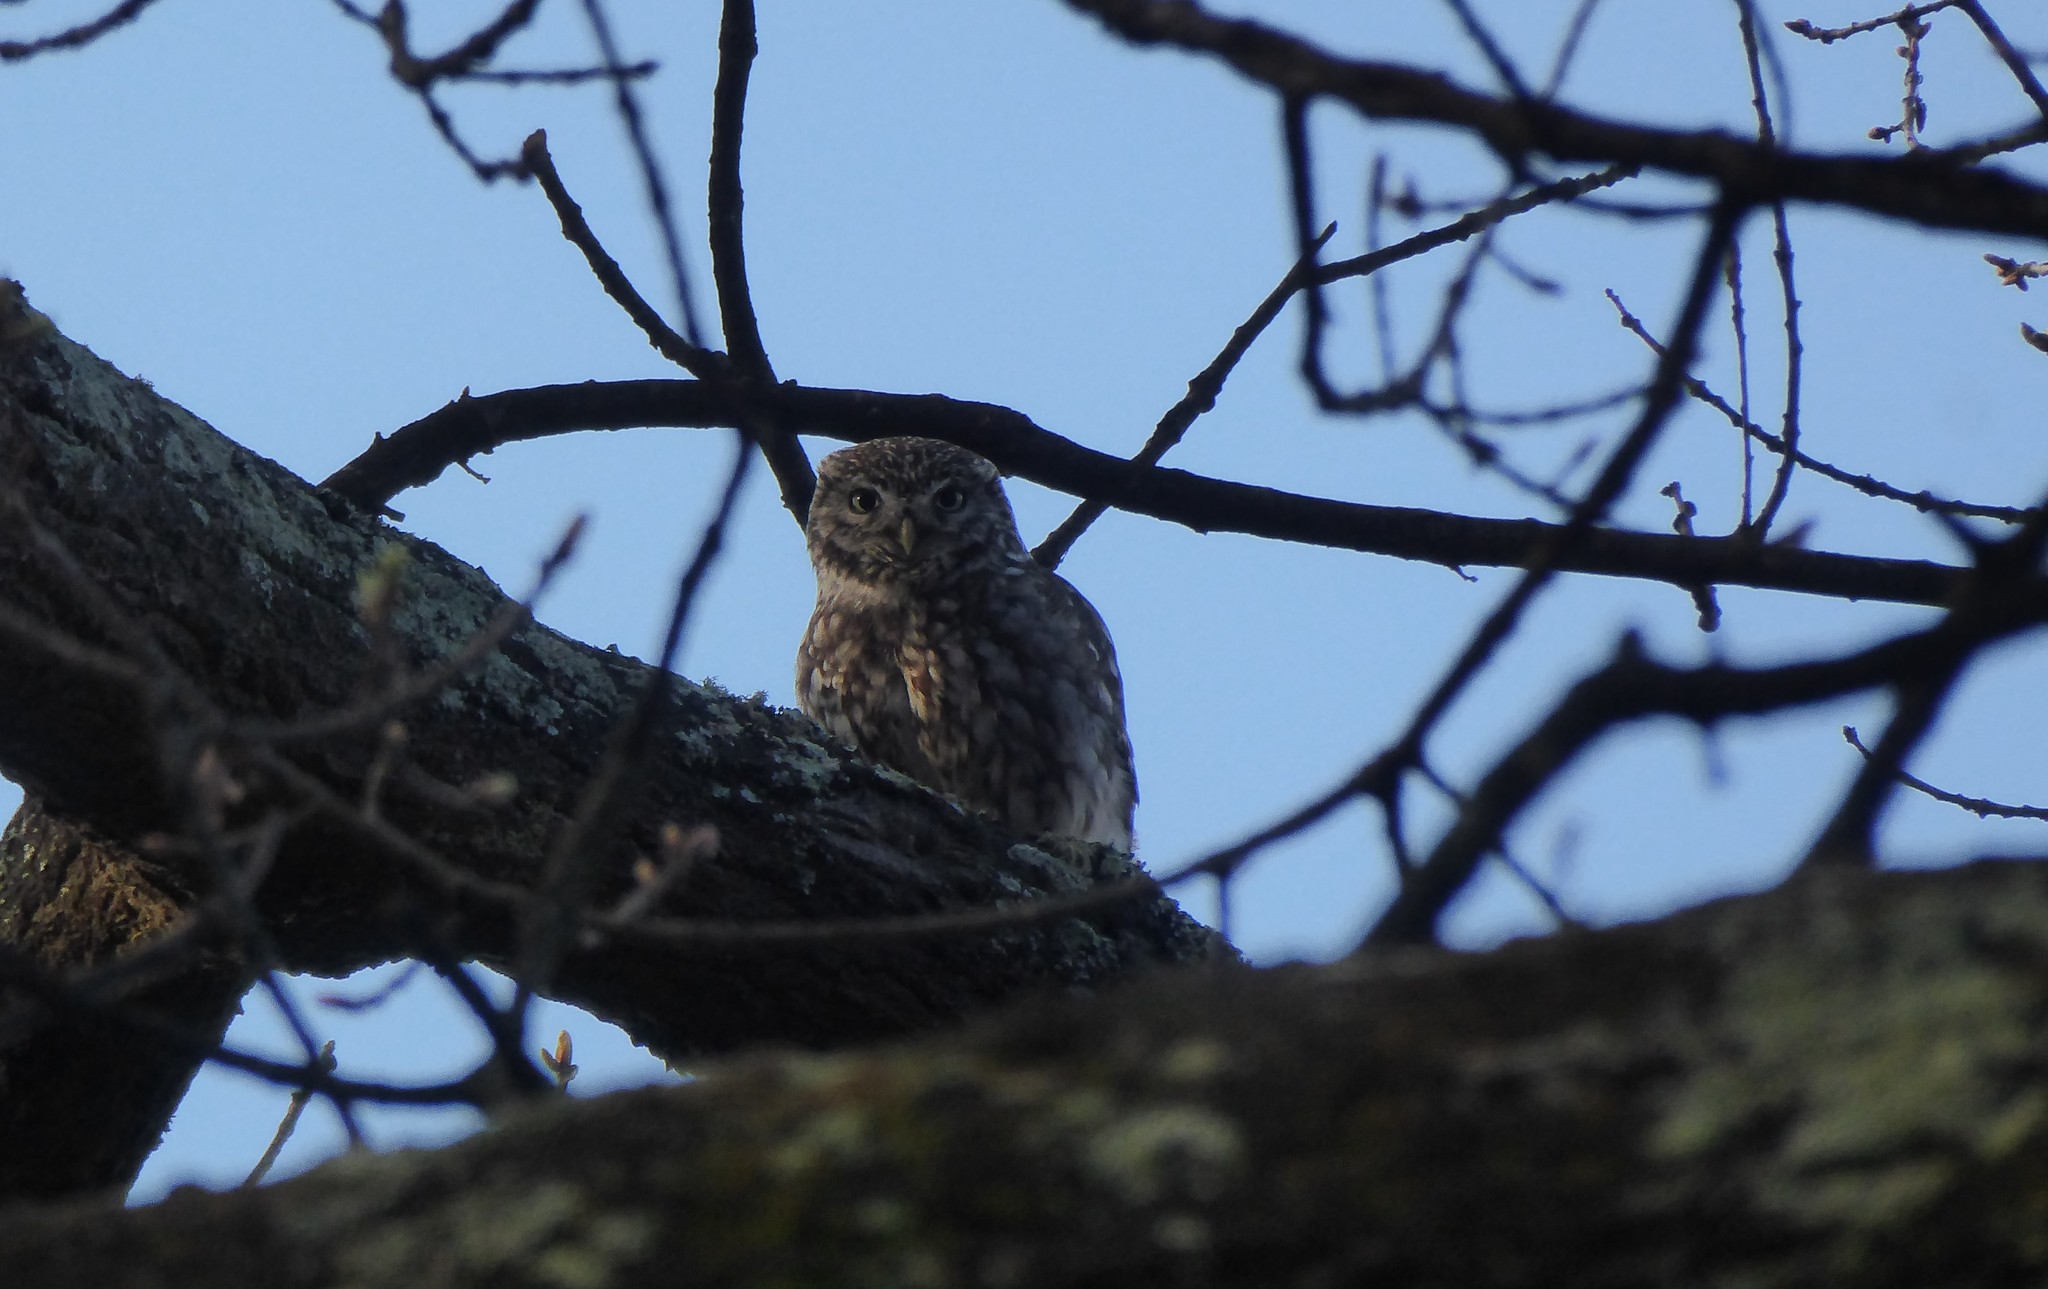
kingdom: Animalia
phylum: Chordata
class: Aves
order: Strigiformes
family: Strigidae
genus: Athene
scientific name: Athene noctua
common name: Little owl
